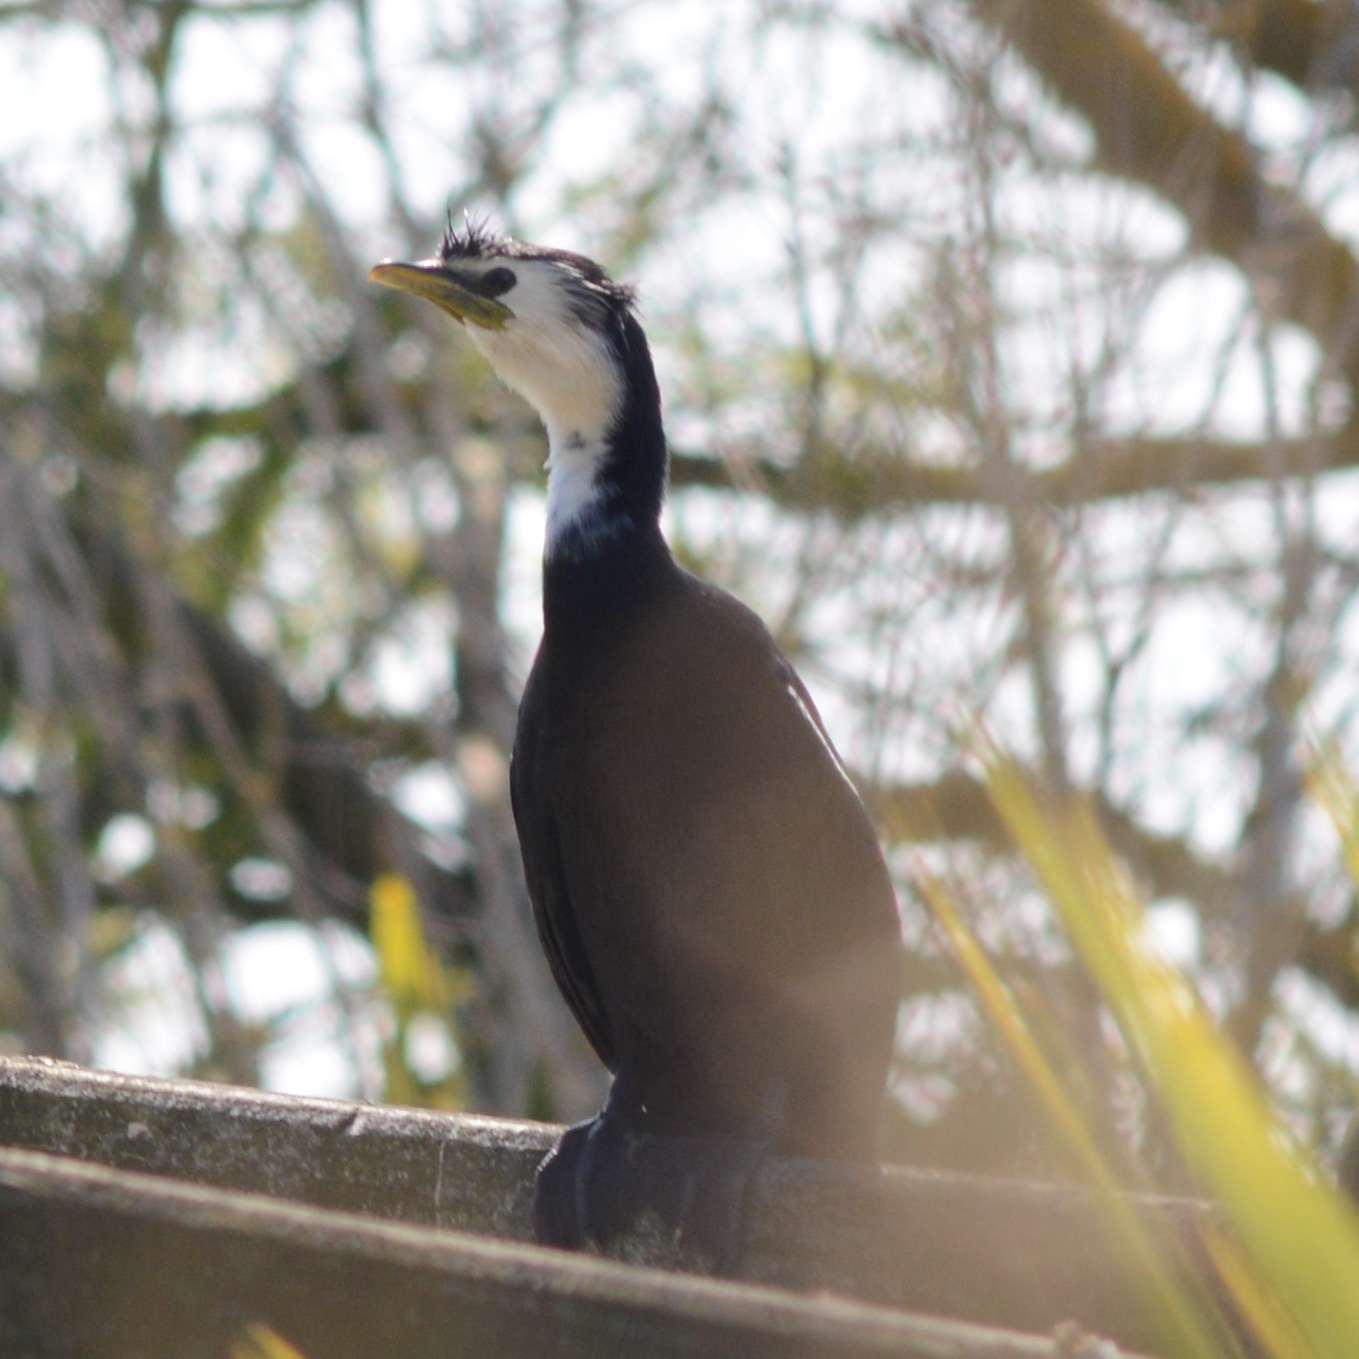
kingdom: Animalia
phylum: Chordata
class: Aves
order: Suliformes
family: Phalacrocoracidae
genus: Microcarbo
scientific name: Microcarbo melanoleucos
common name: Little pied cormorant
